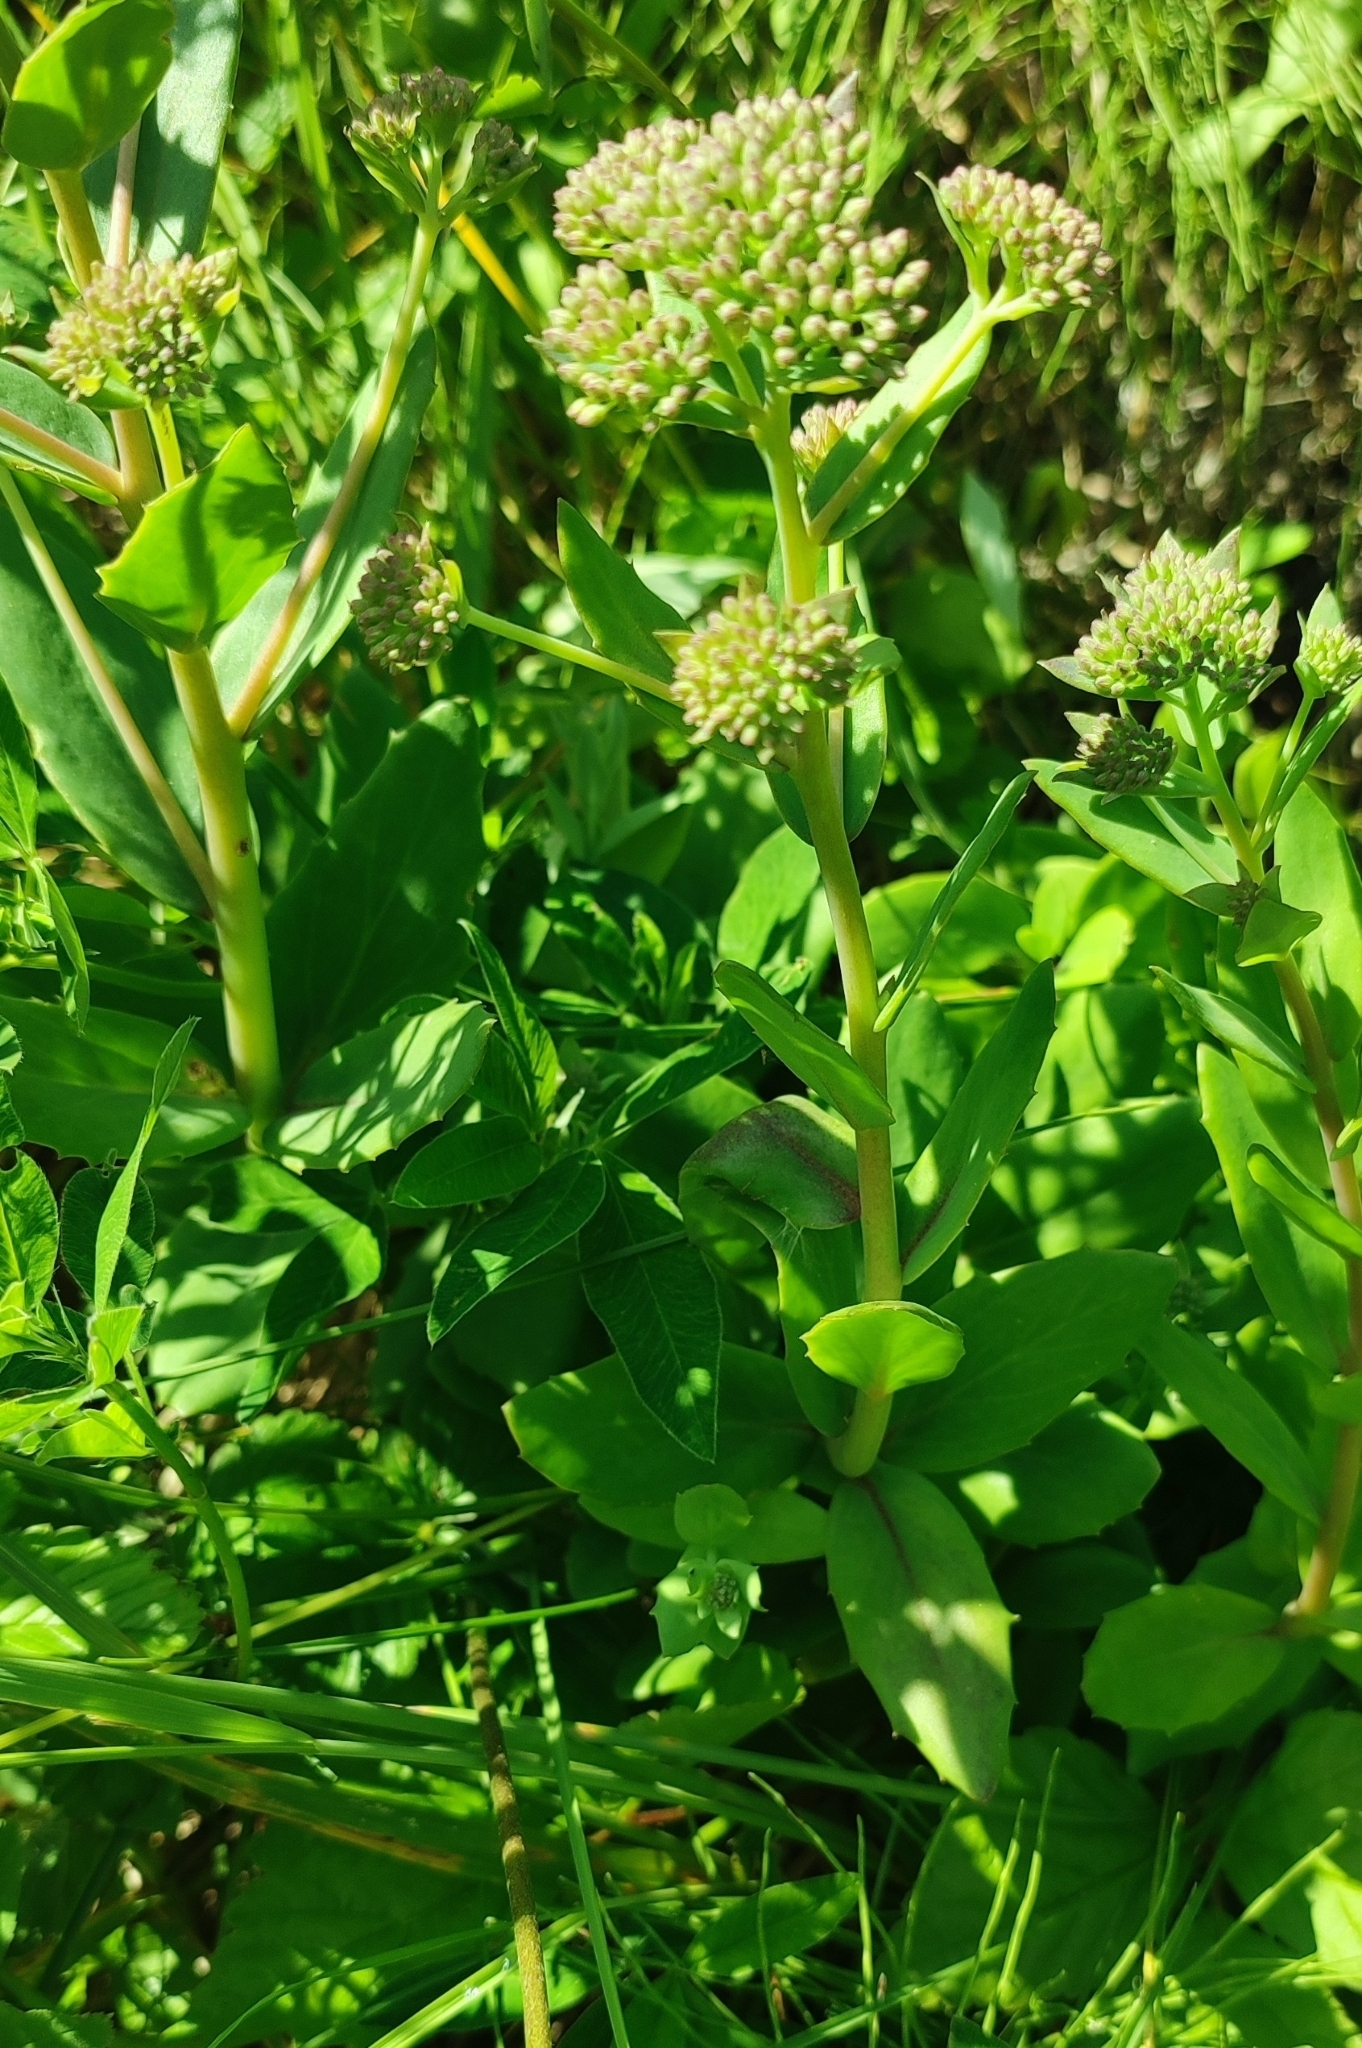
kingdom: Plantae
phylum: Tracheophyta
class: Magnoliopsida
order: Saxifragales
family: Crassulaceae
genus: Hylotelephium
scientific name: Hylotelephium telephium
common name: Live-forever
